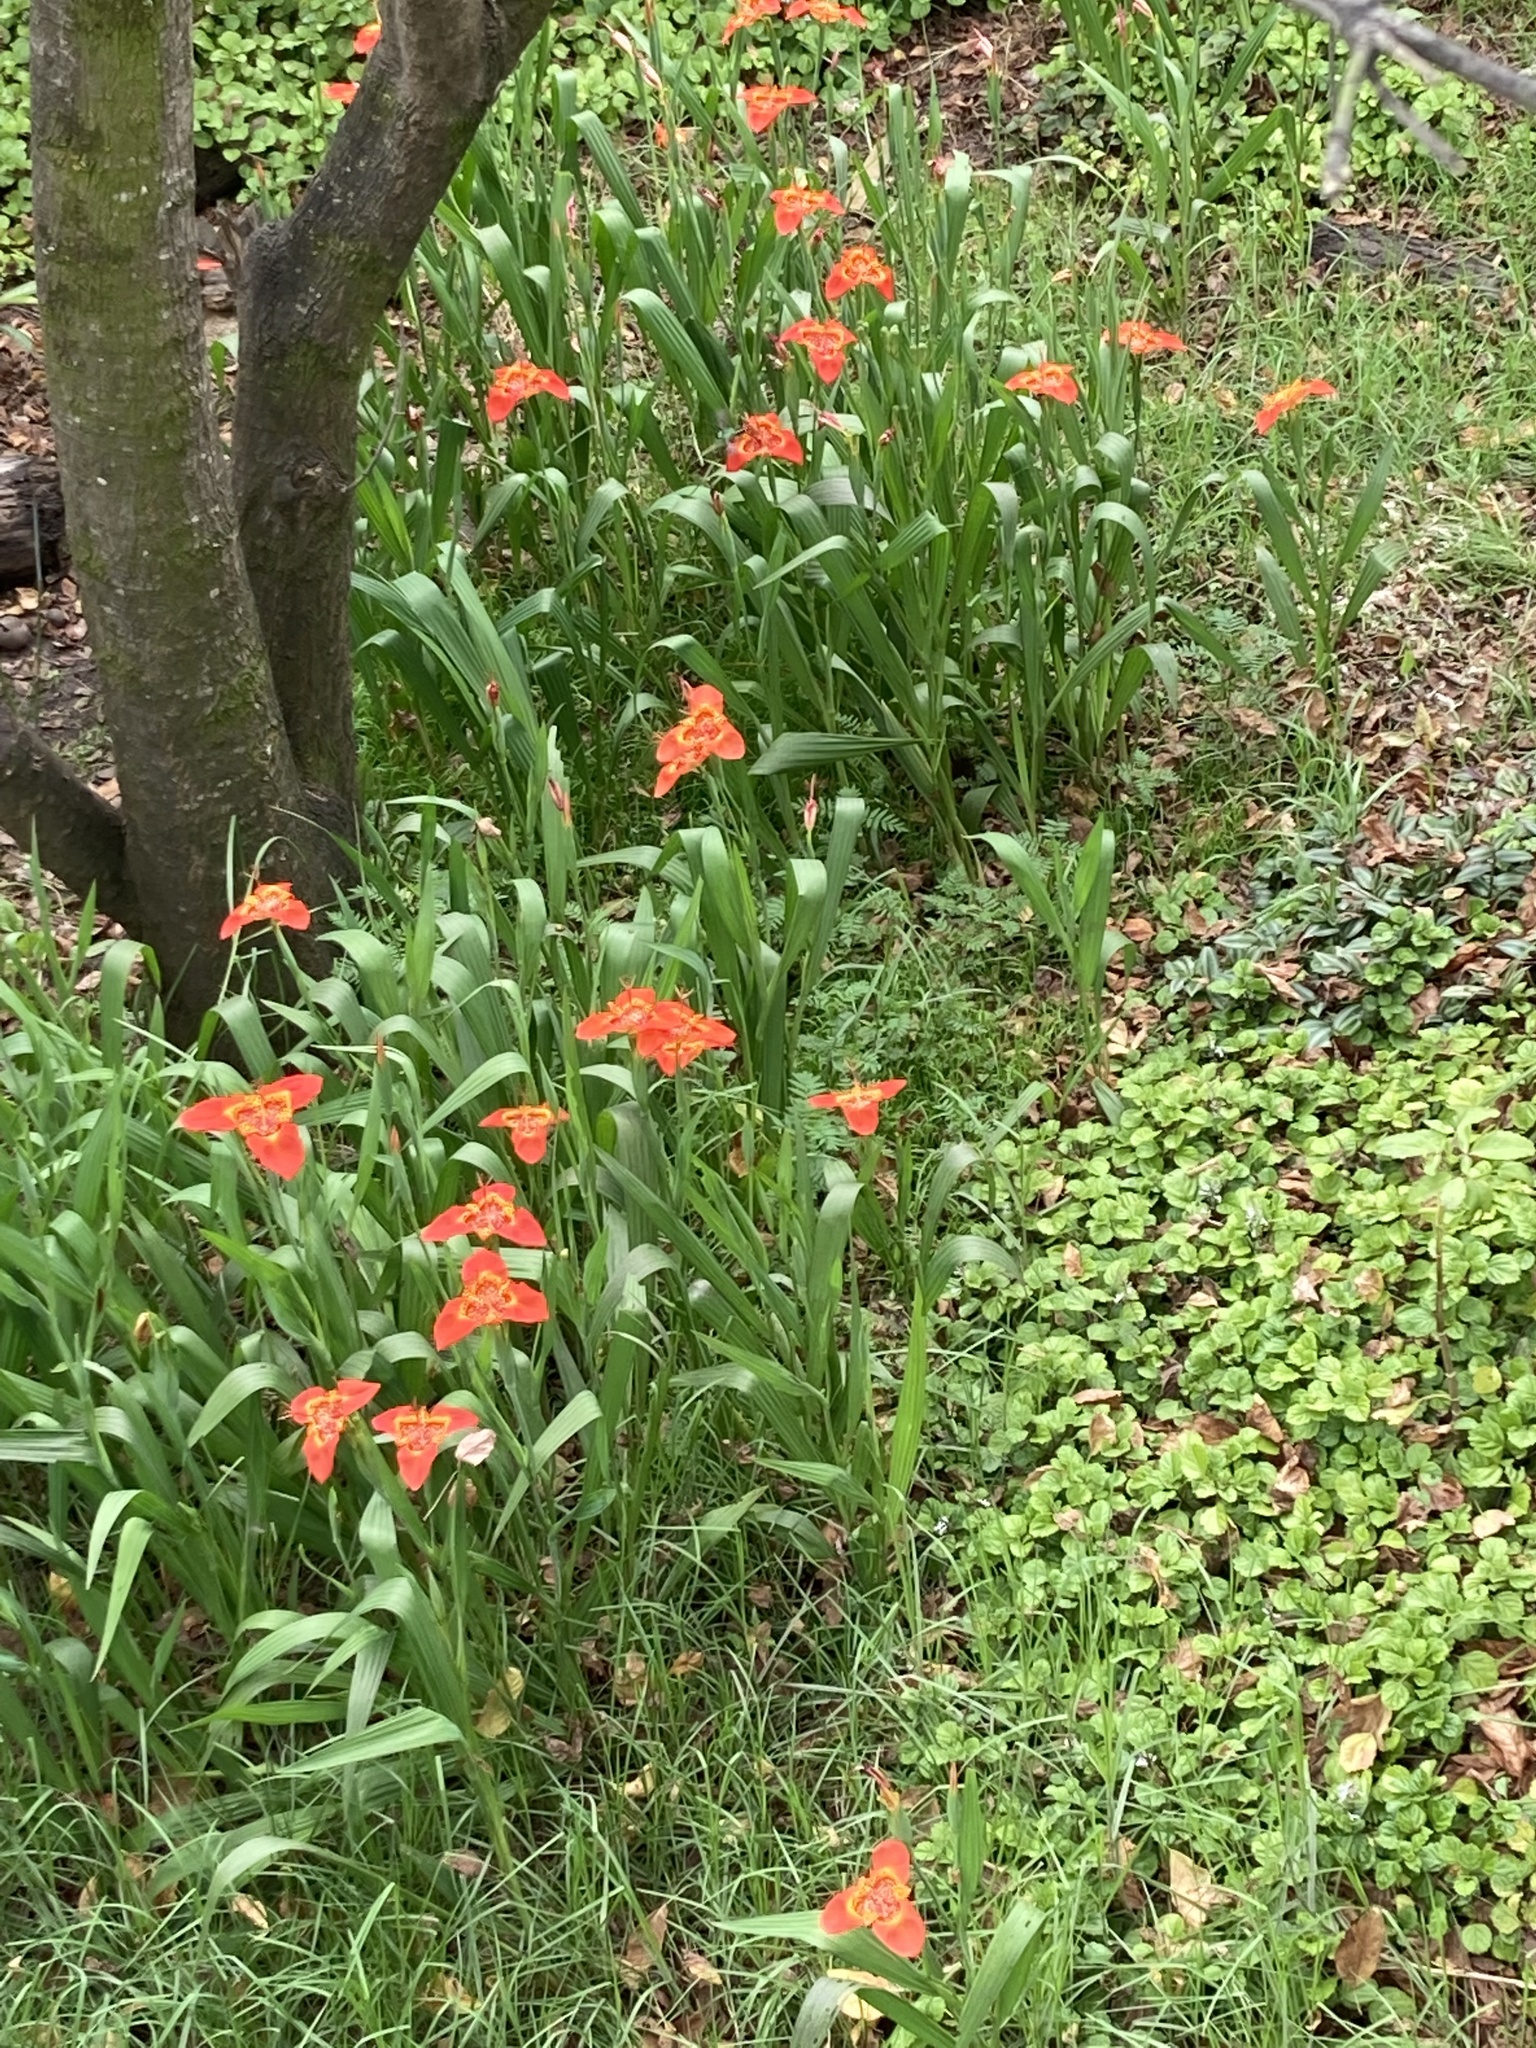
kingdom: Plantae
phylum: Tracheophyta
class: Liliopsida
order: Asparagales
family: Iridaceae
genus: Tigridia
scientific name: Tigridia pavonia
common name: Peacock-flower
